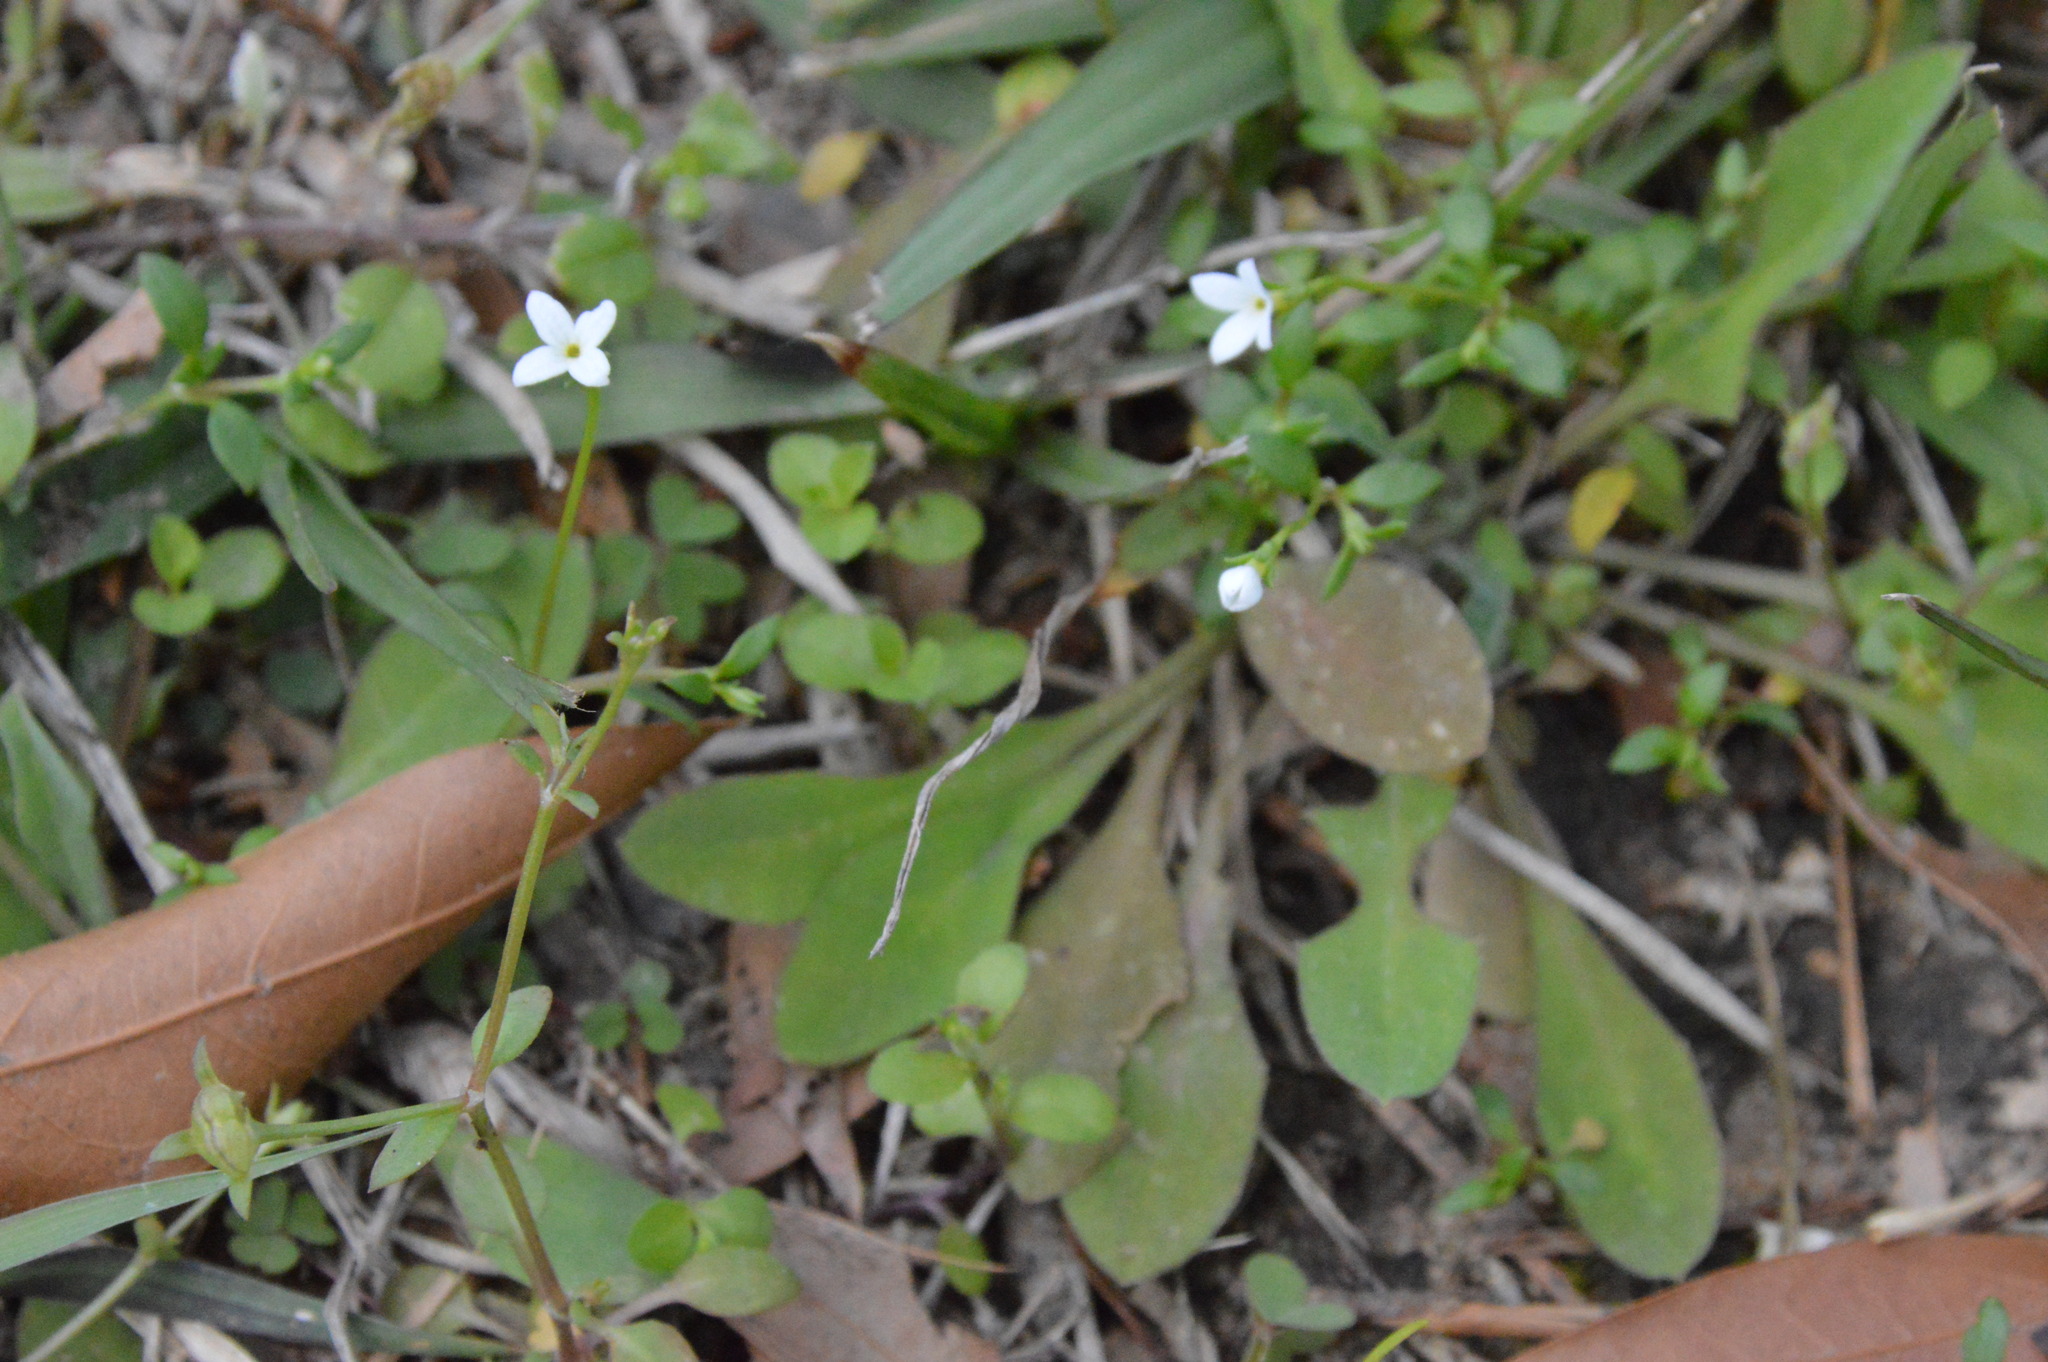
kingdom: Plantae
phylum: Tracheophyta
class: Magnoliopsida
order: Gentianales
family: Rubiaceae
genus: Houstonia
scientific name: Houstonia micrantha
